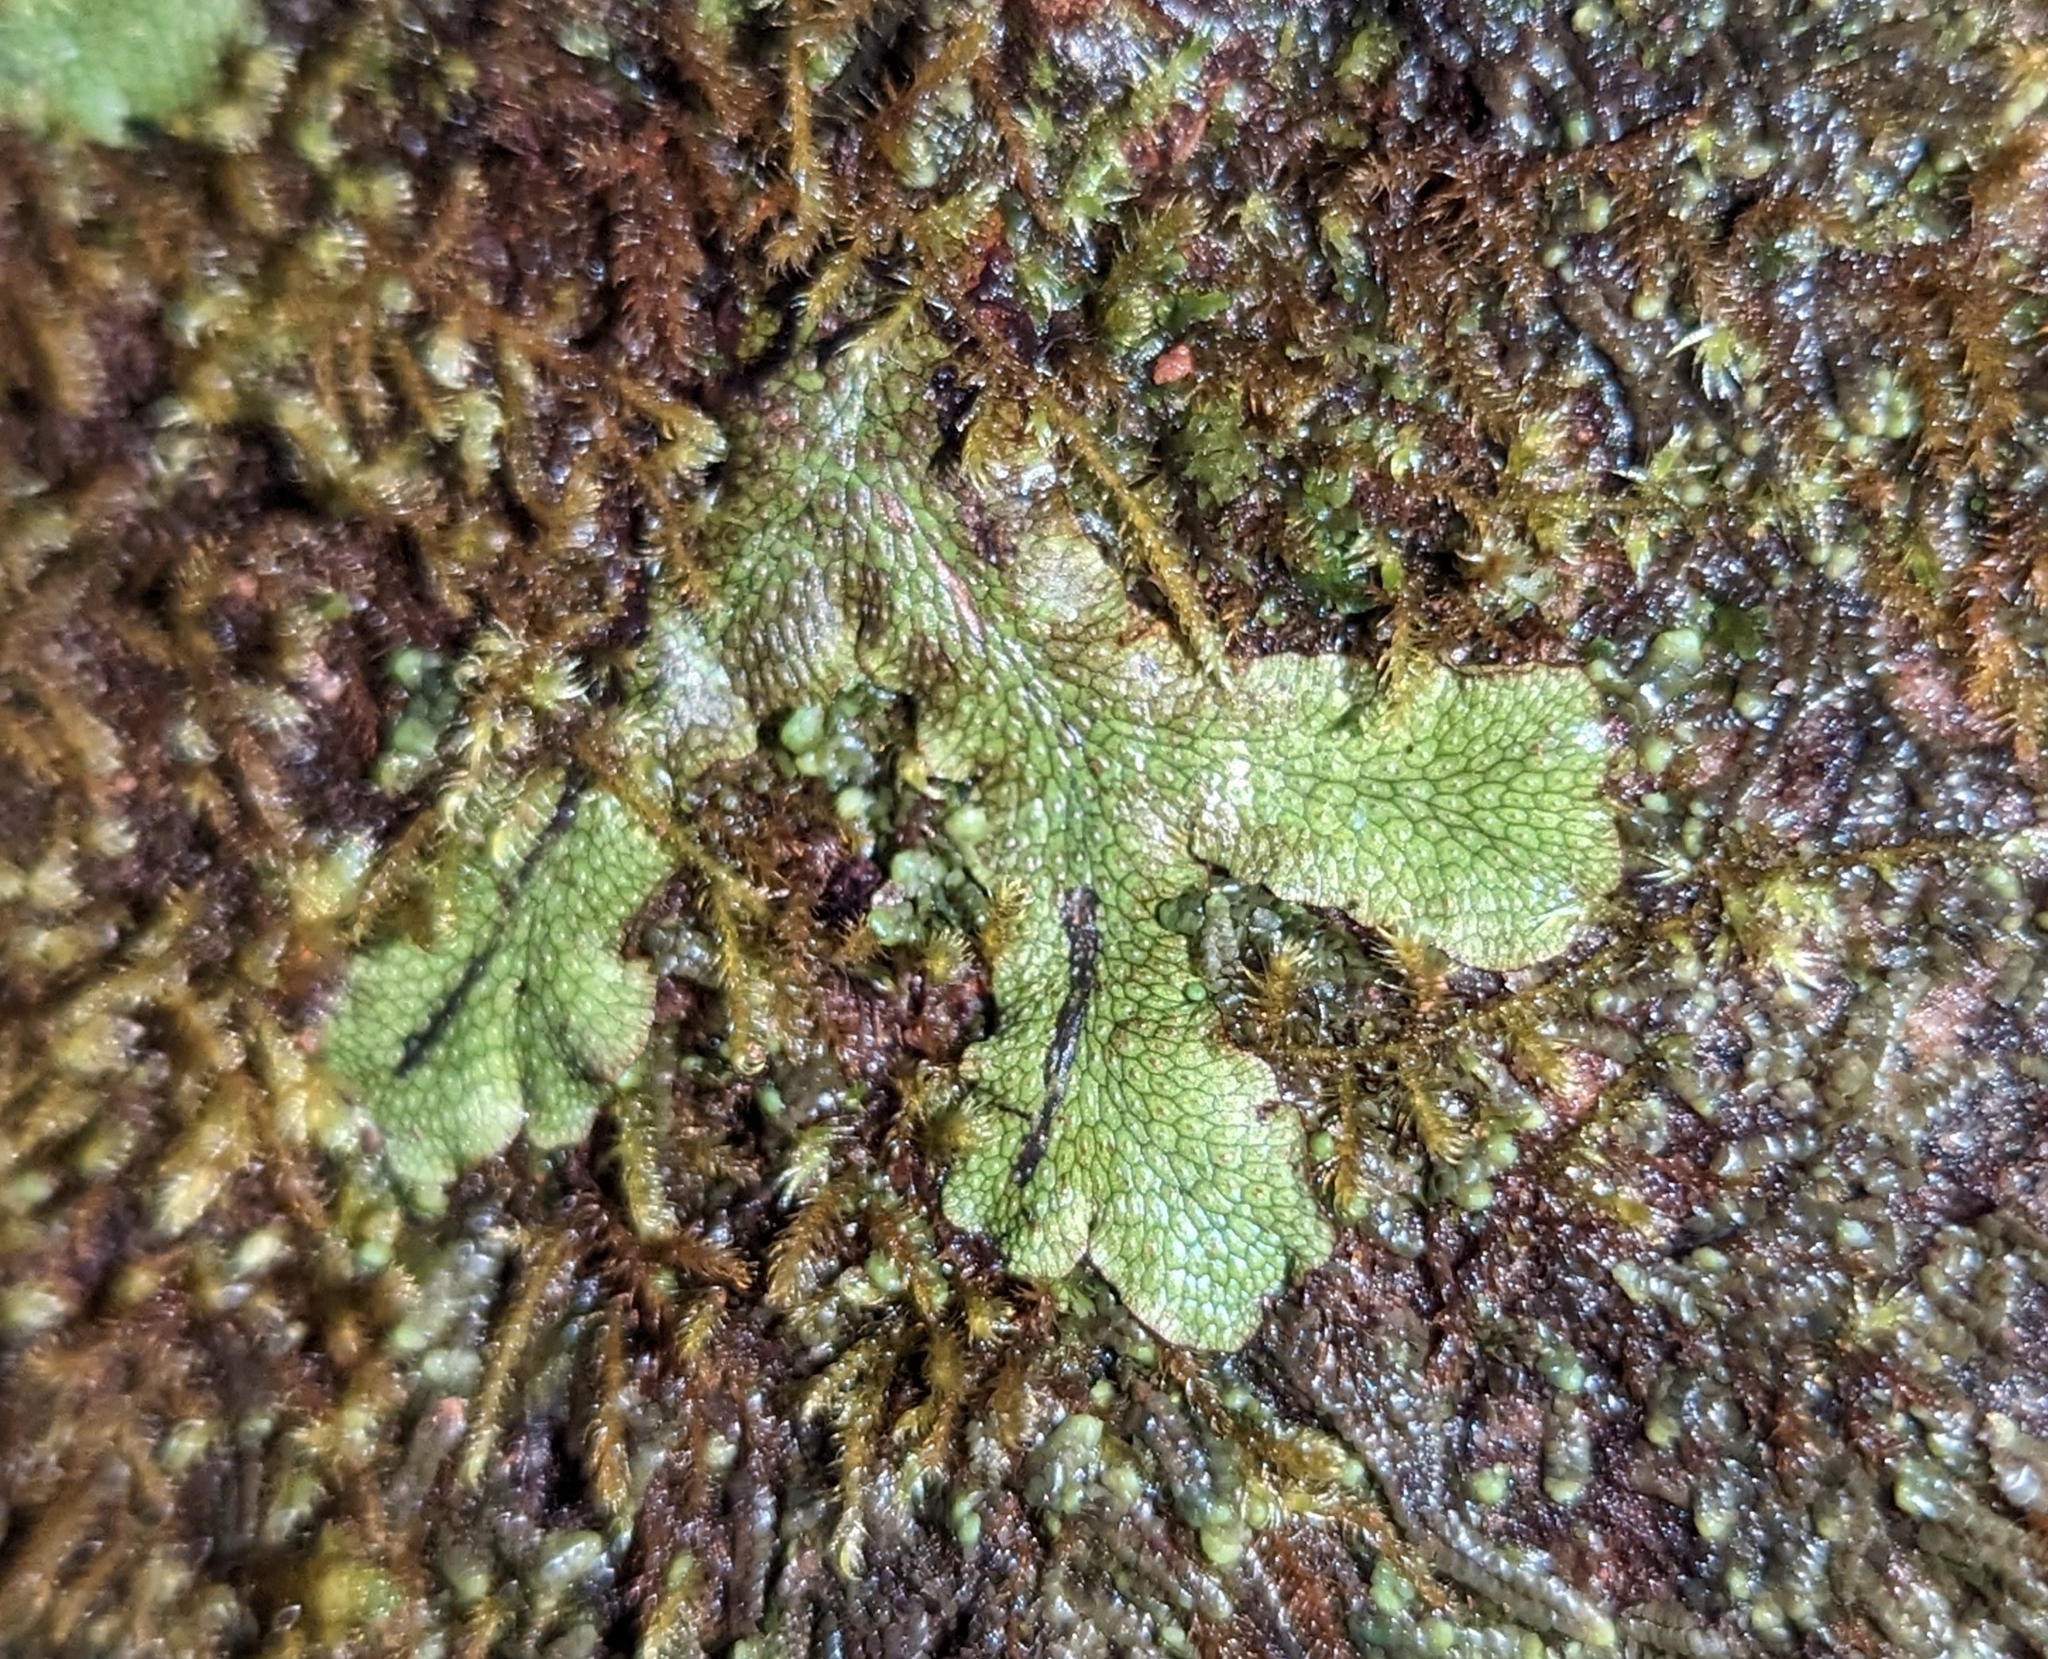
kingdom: Plantae
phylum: Marchantiophyta
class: Marchantiopsida
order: Marchantiales
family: Conocephalaceae
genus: Conocephalum
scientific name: Conocephalum salebrosum
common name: Cat-tongue liverwort
